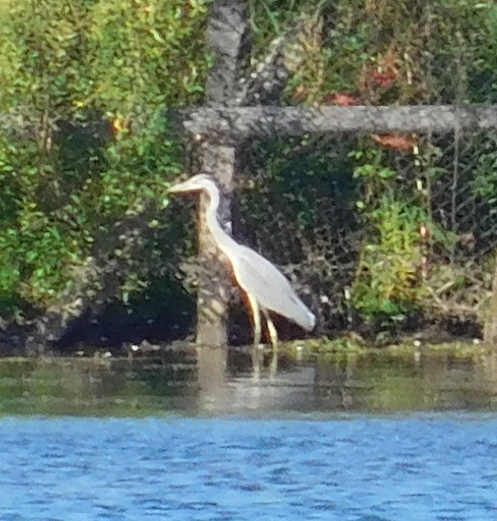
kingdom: Animalia
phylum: Chordata
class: Aves
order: Pelecaniformes
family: Ardeidae
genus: Ardea
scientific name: Ardea cinerea
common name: Grey heron
